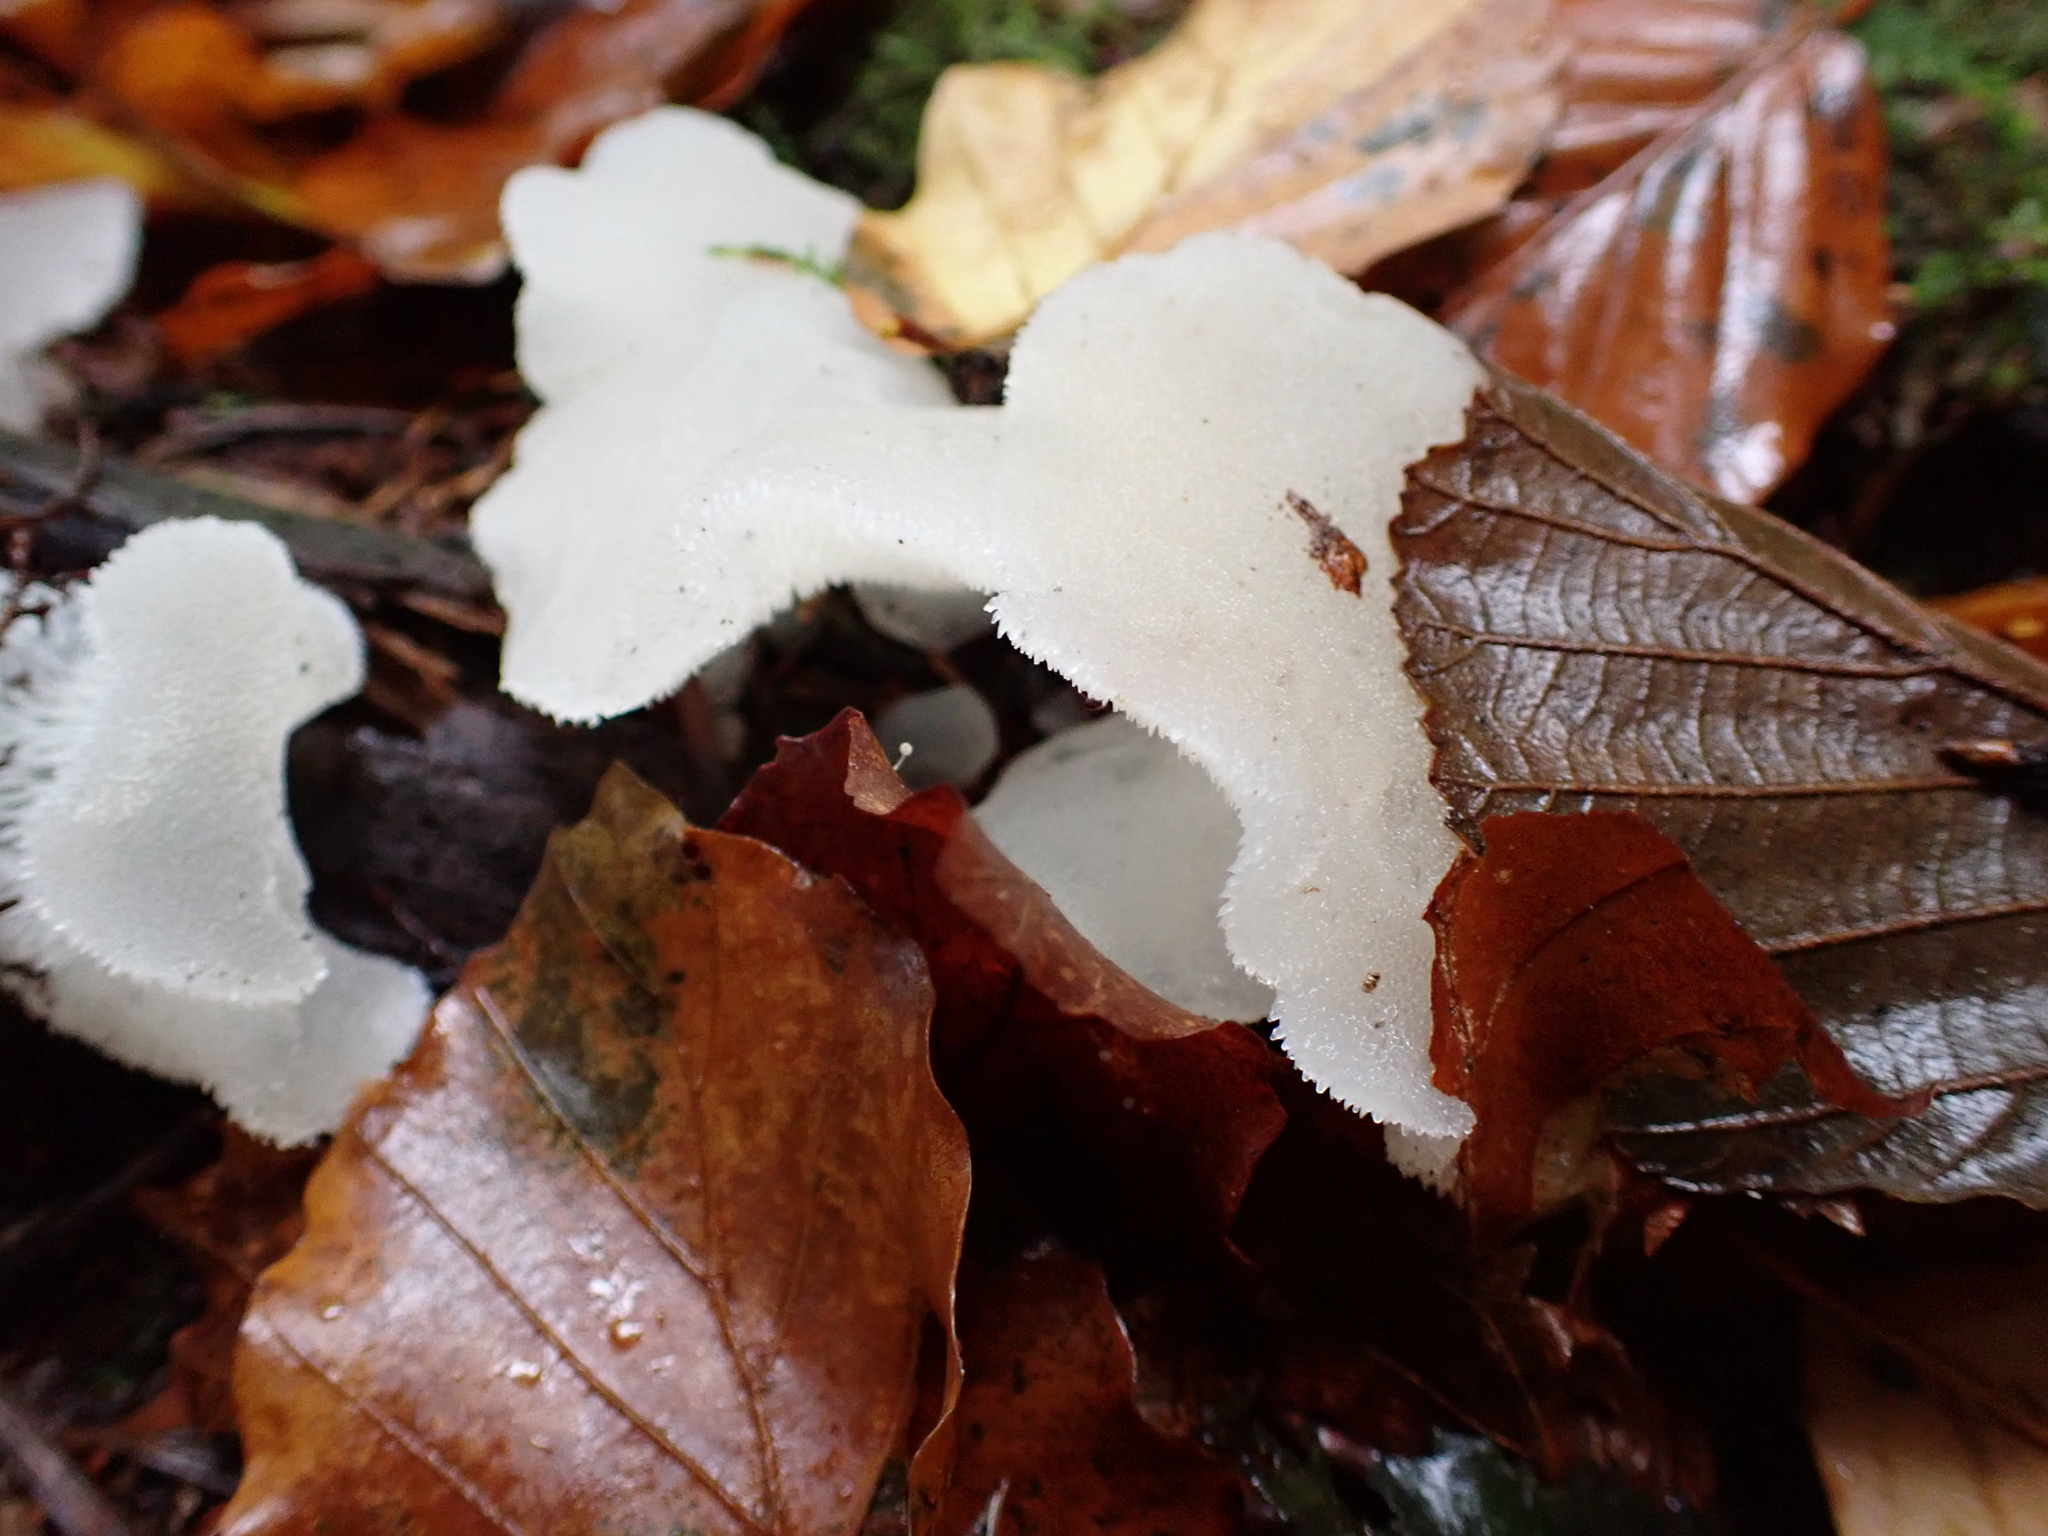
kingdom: Fungi
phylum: Basidiomycota
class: Agaricomycetes
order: Auriculariales
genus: Pseudohydnum
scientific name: Pseudohydnum gelatinosum
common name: Jelly tongue
